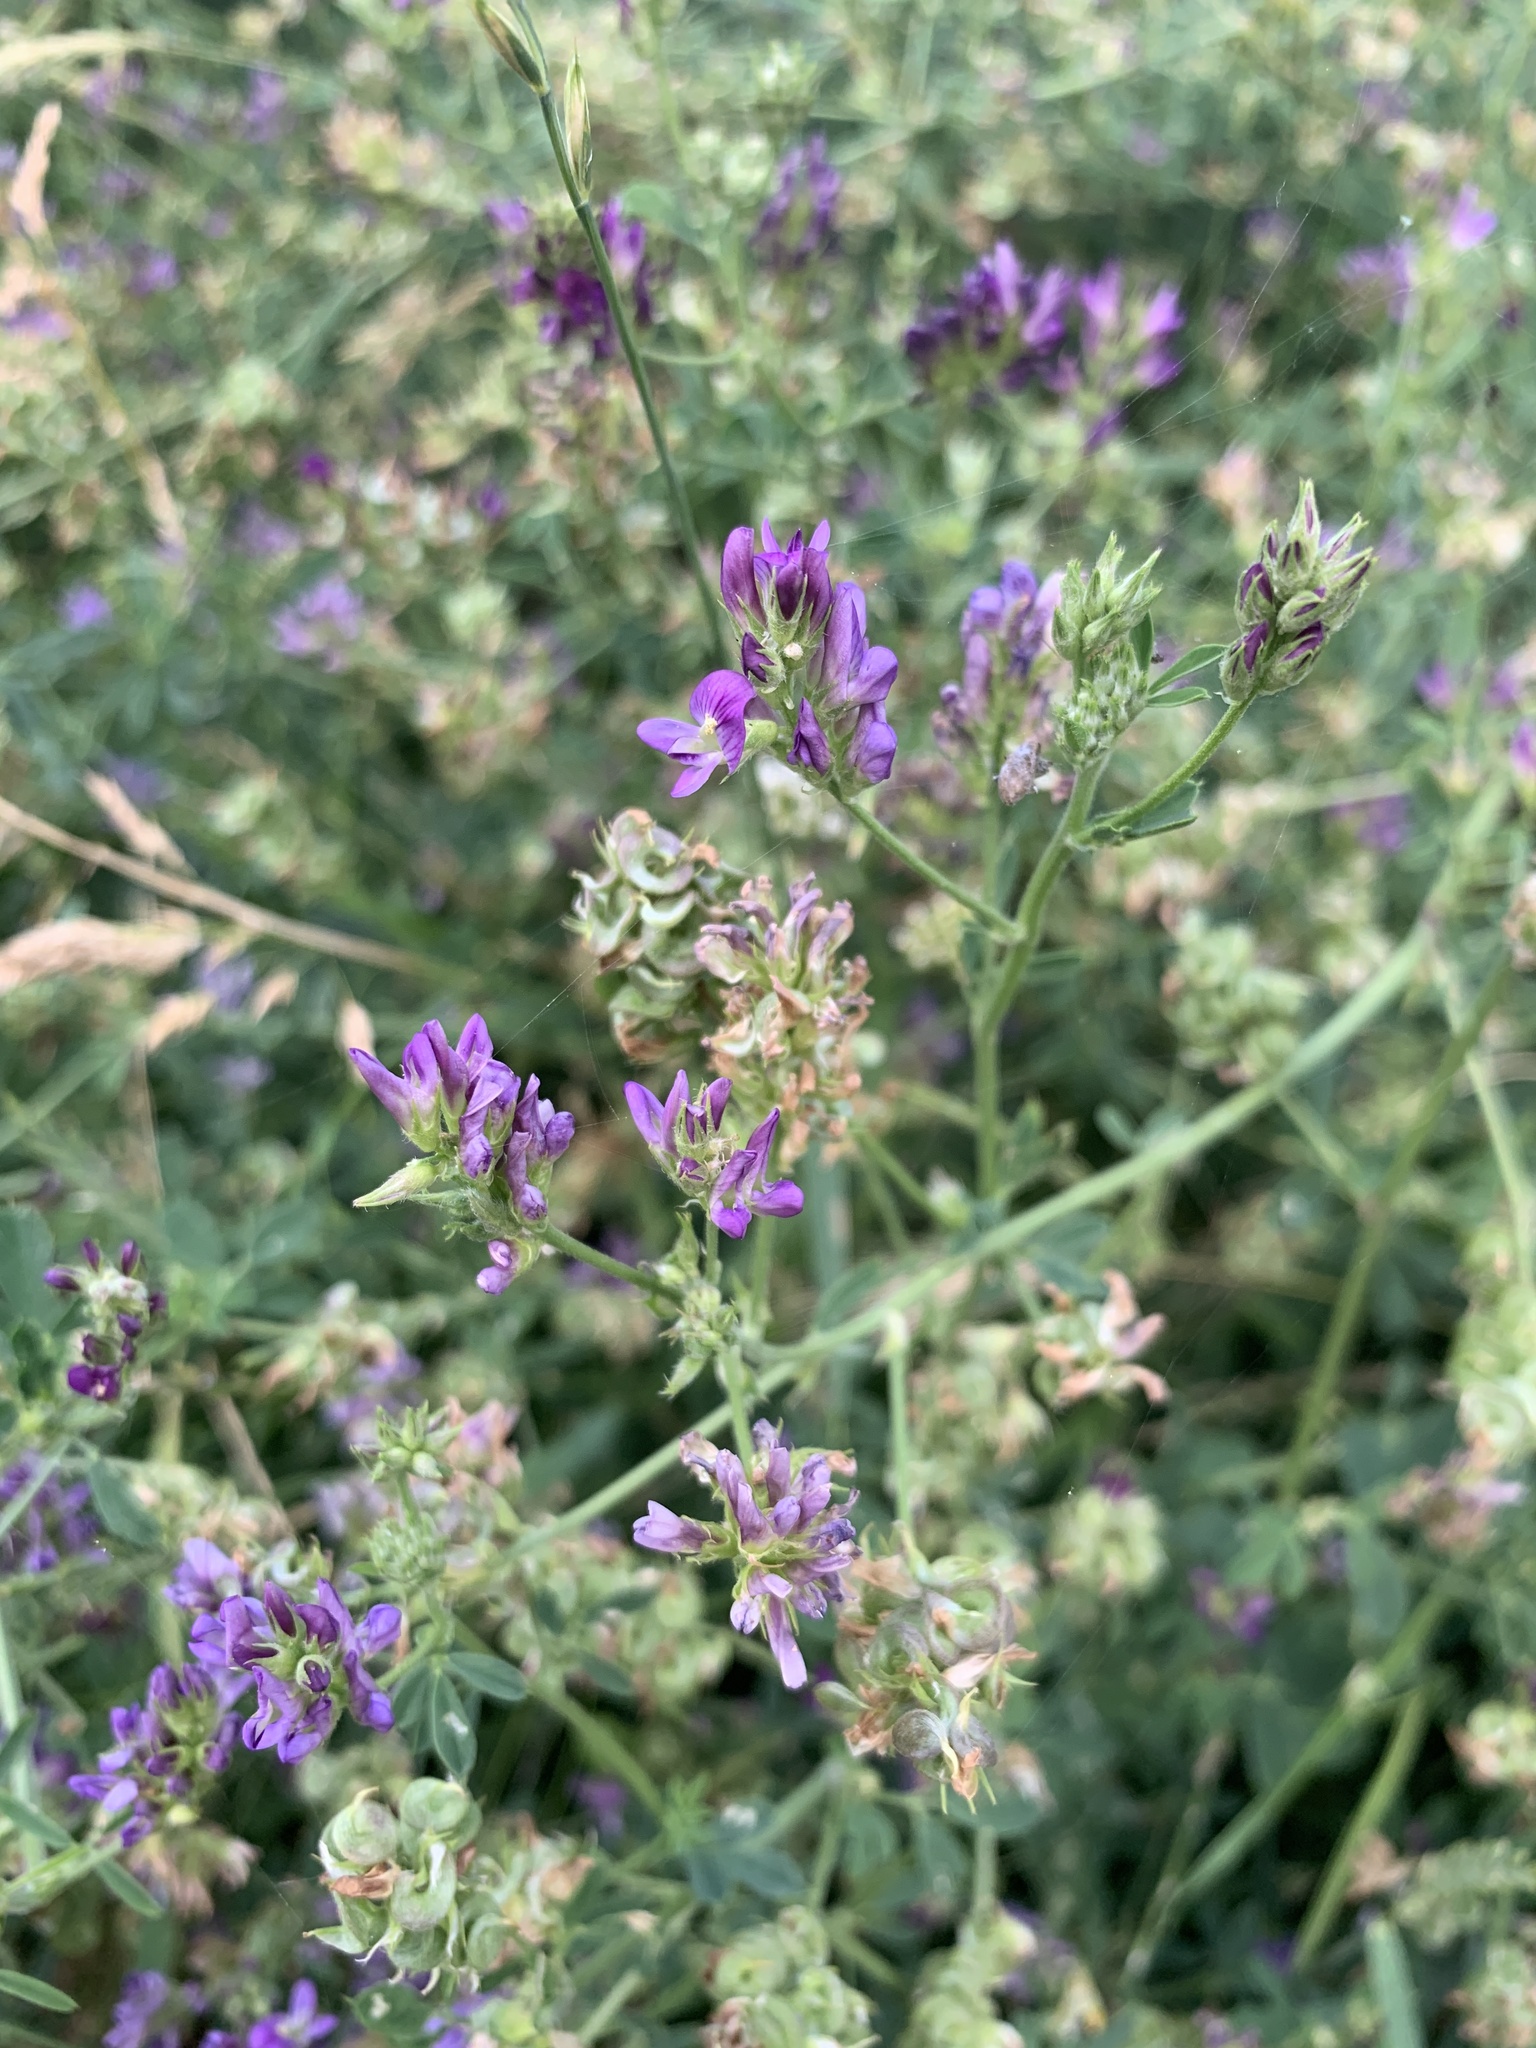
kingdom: Plantae
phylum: Tracheophyta
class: Magnoliopsida
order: Fabales
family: Fabaceae
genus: Medicago
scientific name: Medicago sativa
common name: Alfalfa
